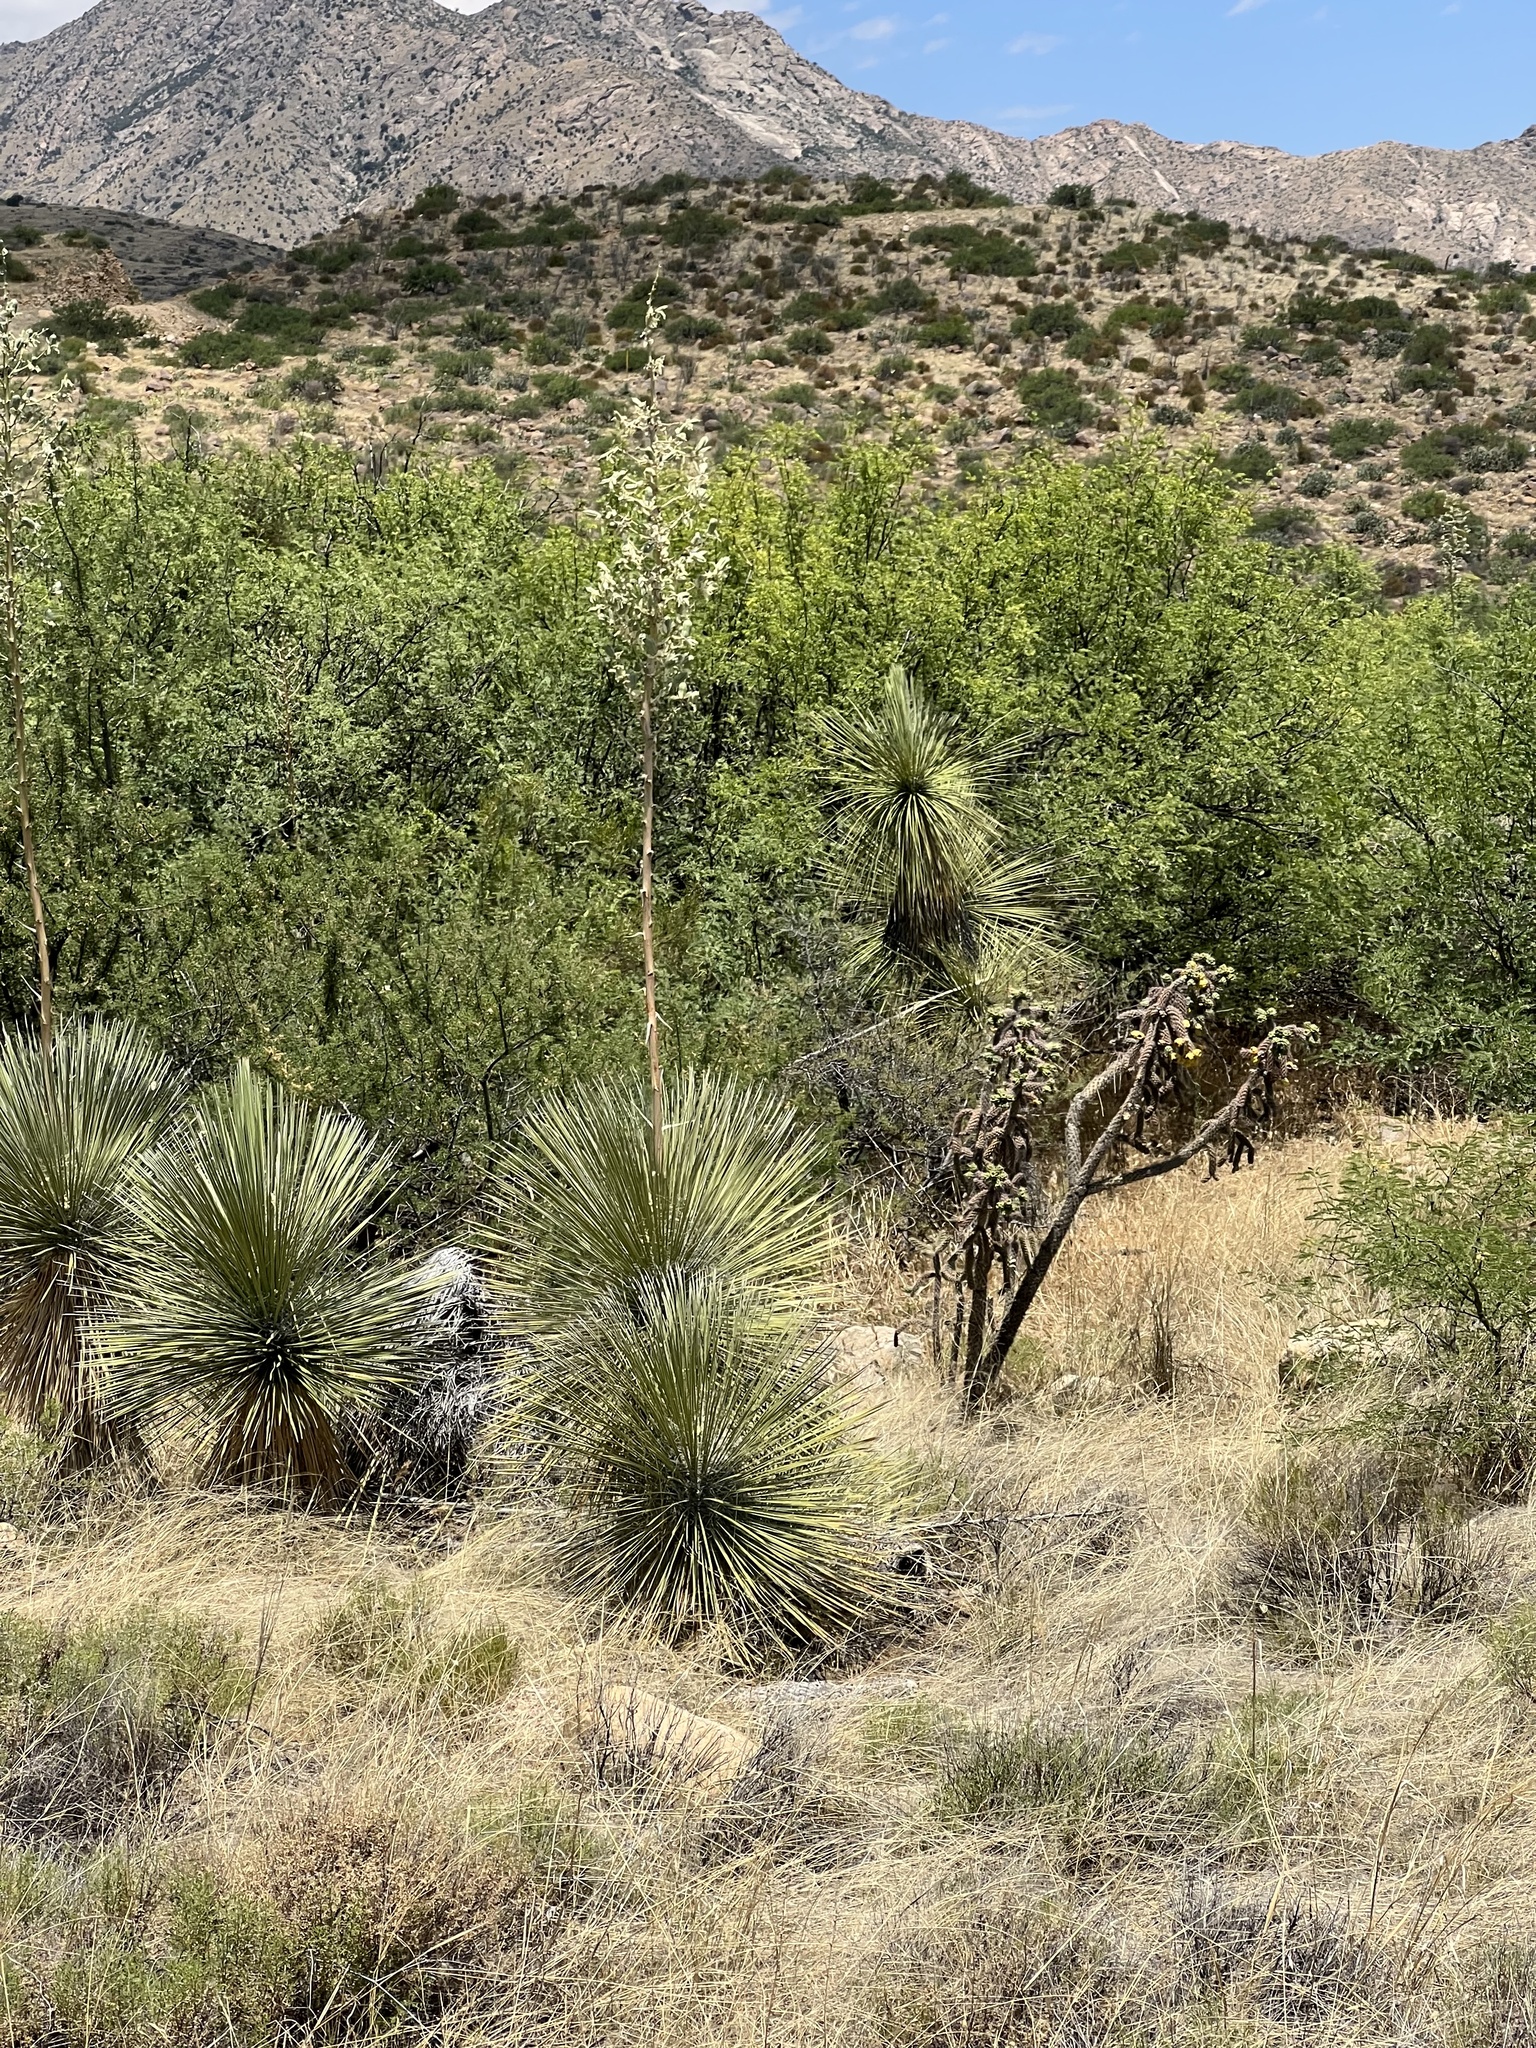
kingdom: Plantae
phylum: Tracheophyta
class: Liliopsida
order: Asparagales
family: Asparagaceae
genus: Yucca
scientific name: Yucca elata
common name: Palmella
